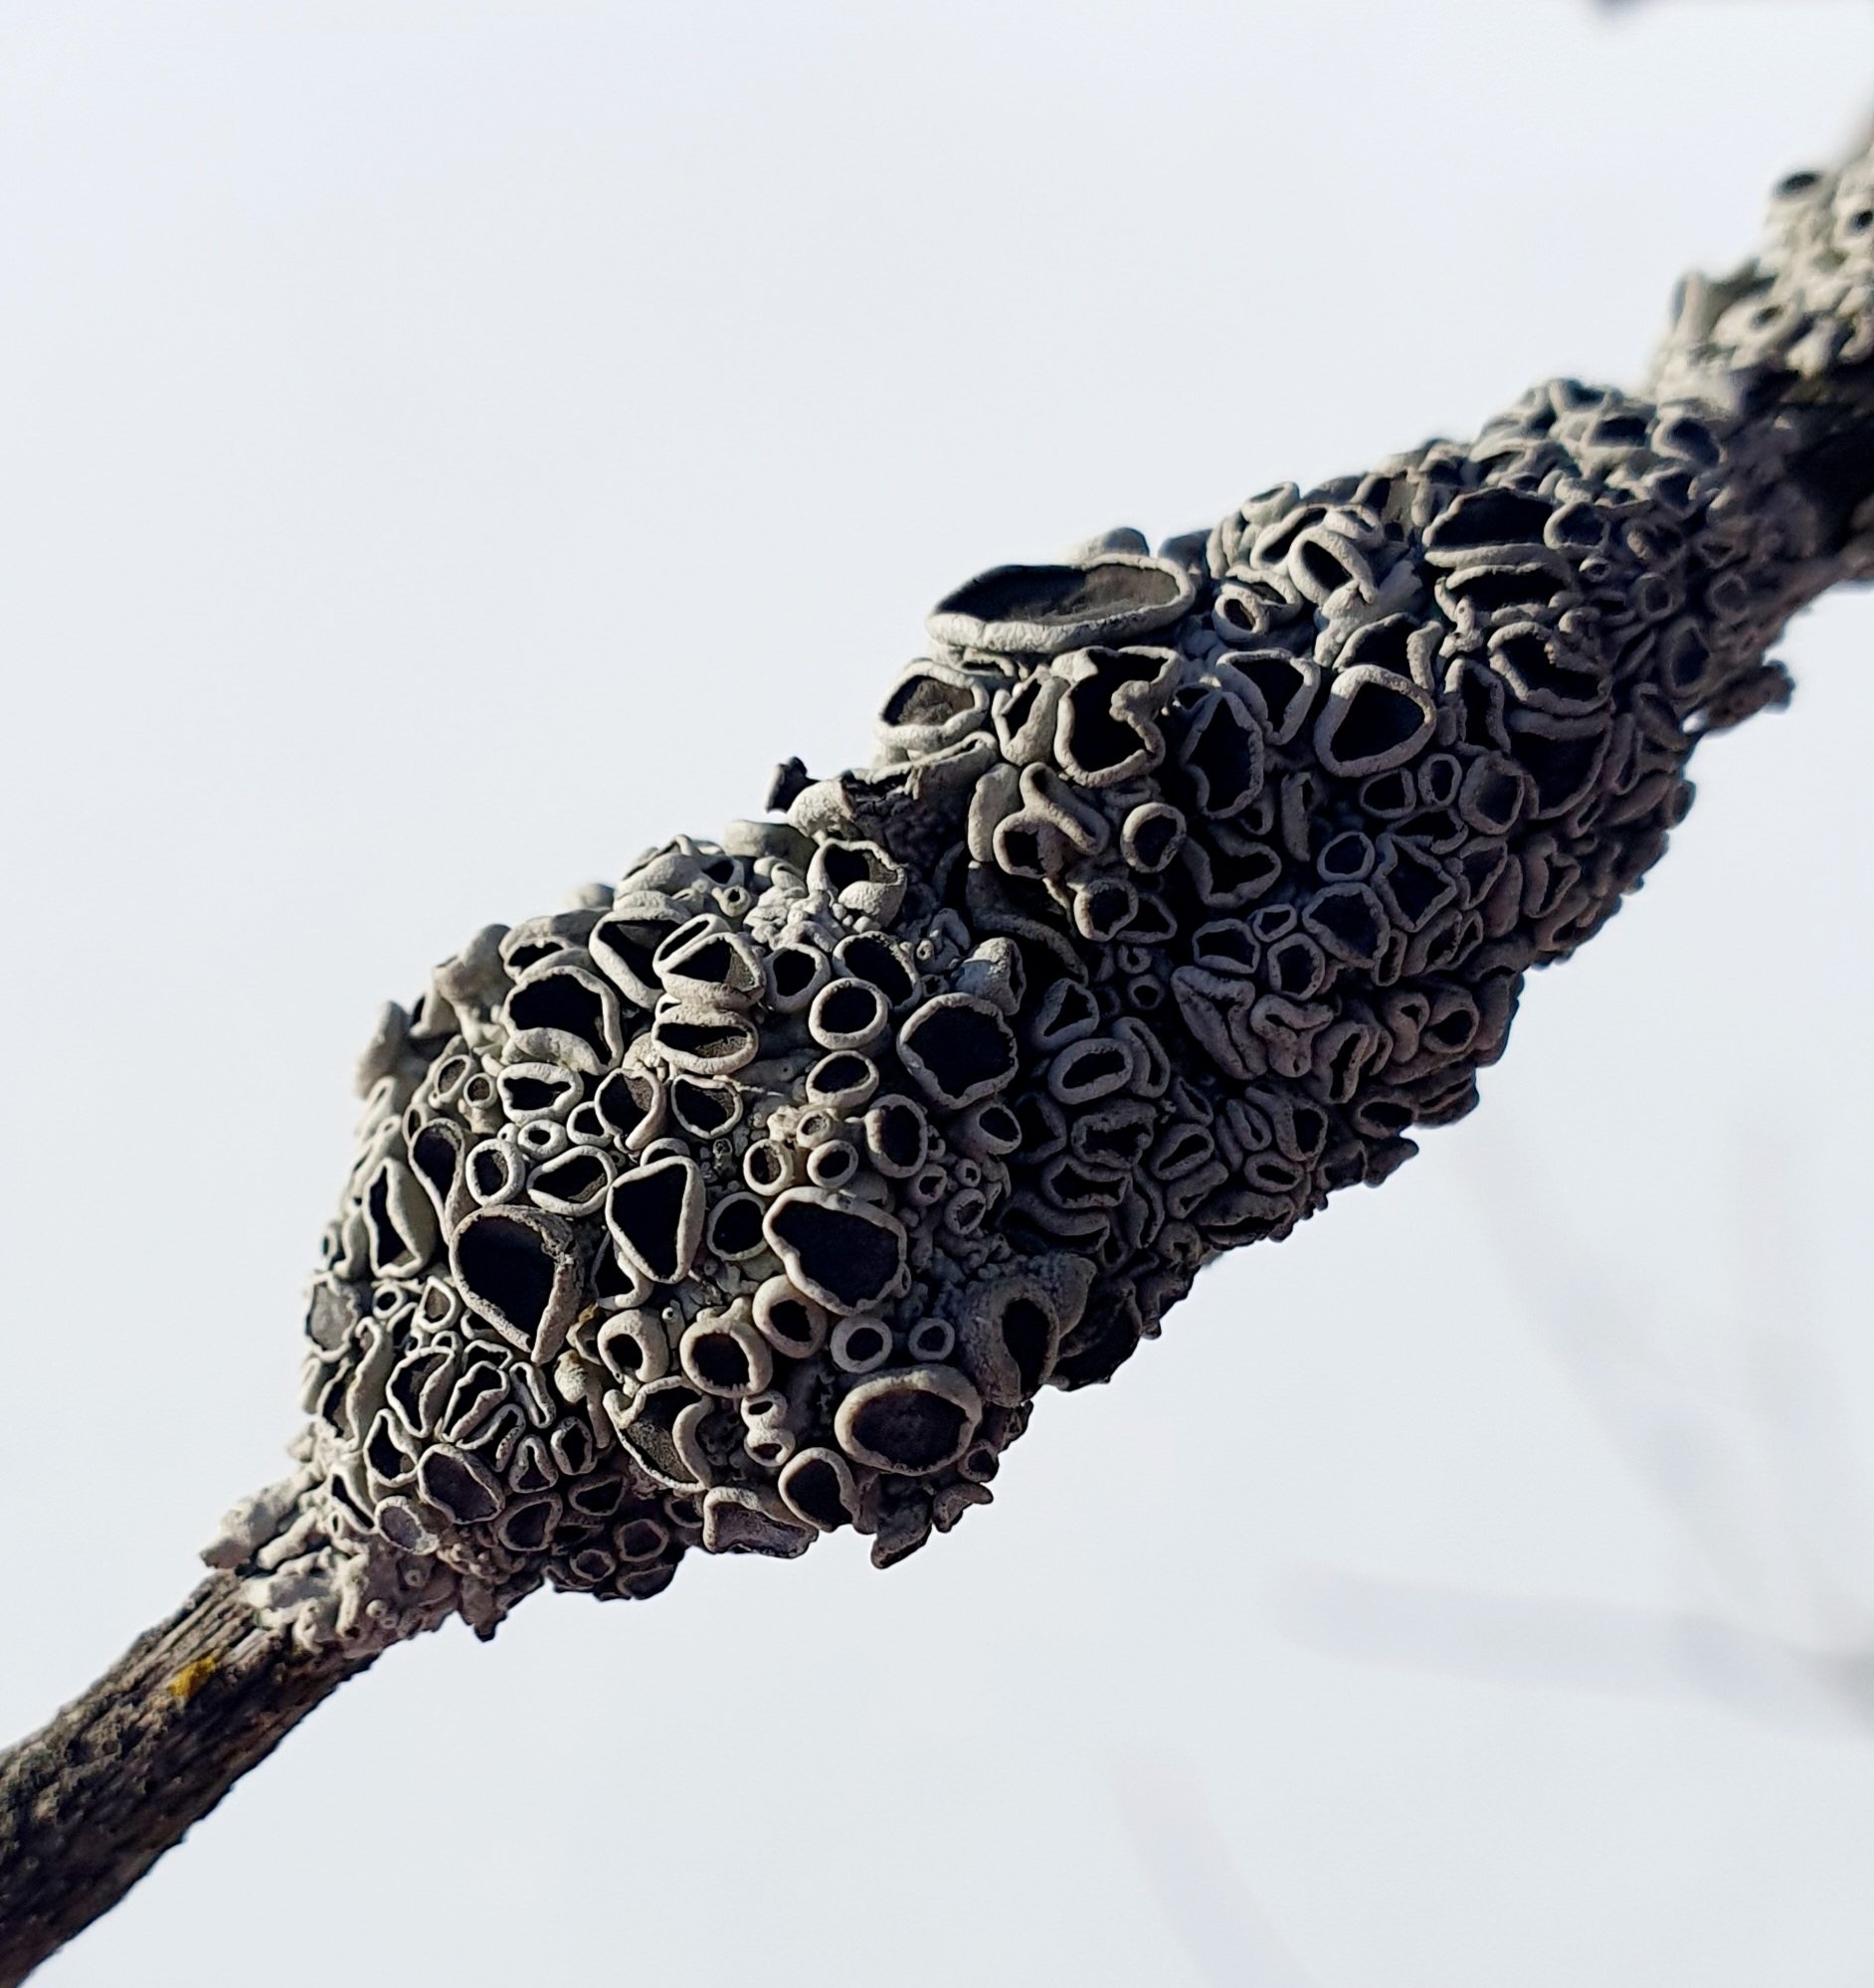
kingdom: Fungi
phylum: Ascomycota
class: Lecanoromycetes
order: Caliciales
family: Physciaceae
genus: Physcia
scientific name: Physcia stellaris
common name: Star rosette lichen
